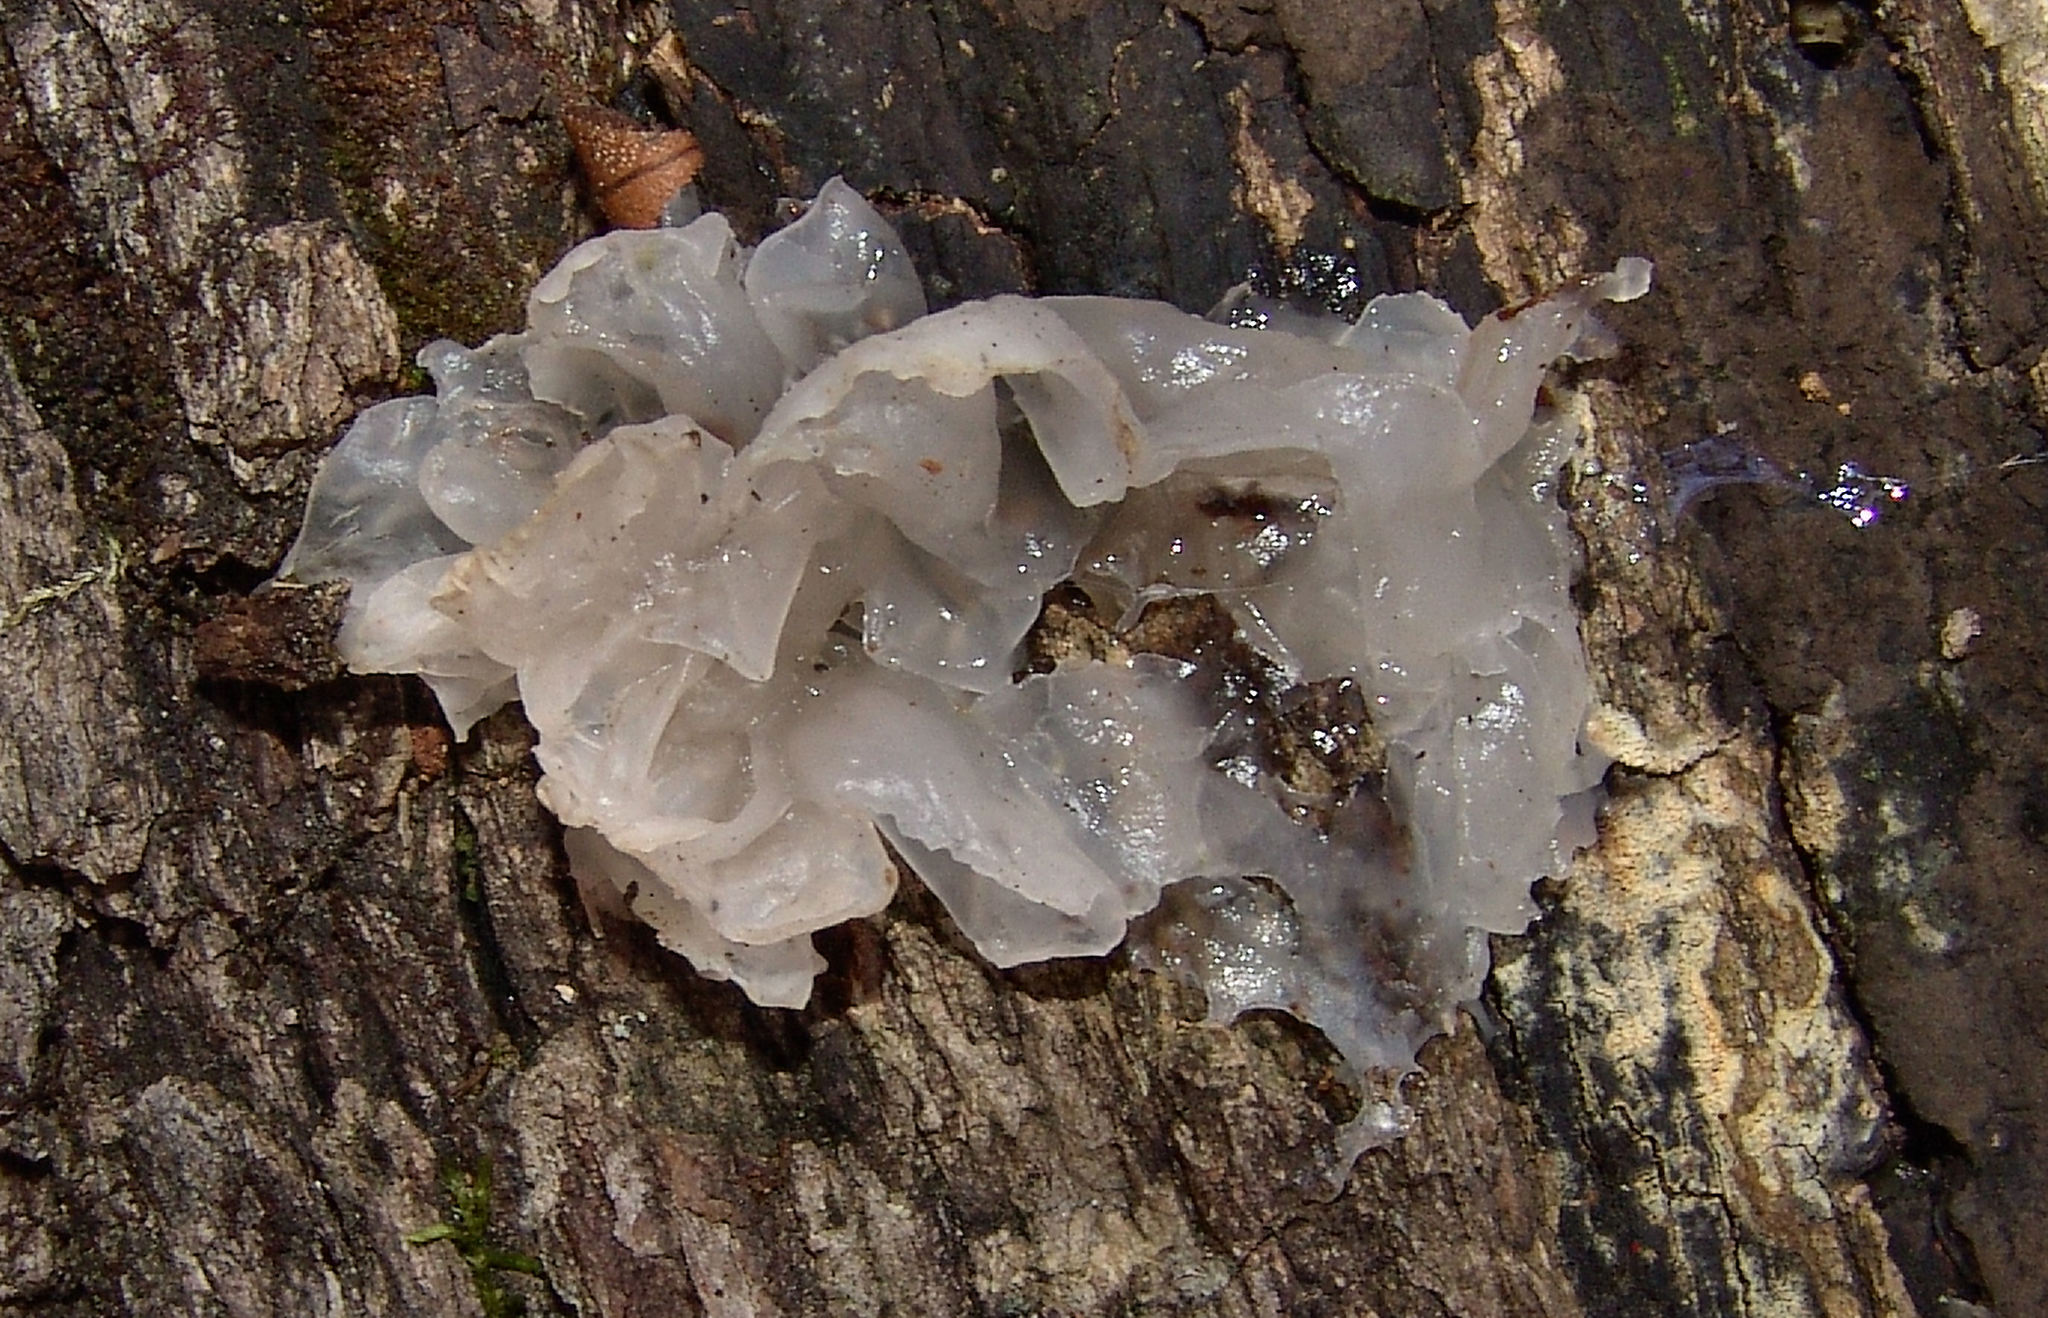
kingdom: Fungi
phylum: Basidiomycota
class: Tremellomycetes
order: Tremellales
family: Tremellaceae
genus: Tremella
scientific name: Tremella fuciformis
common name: Snow fungus
